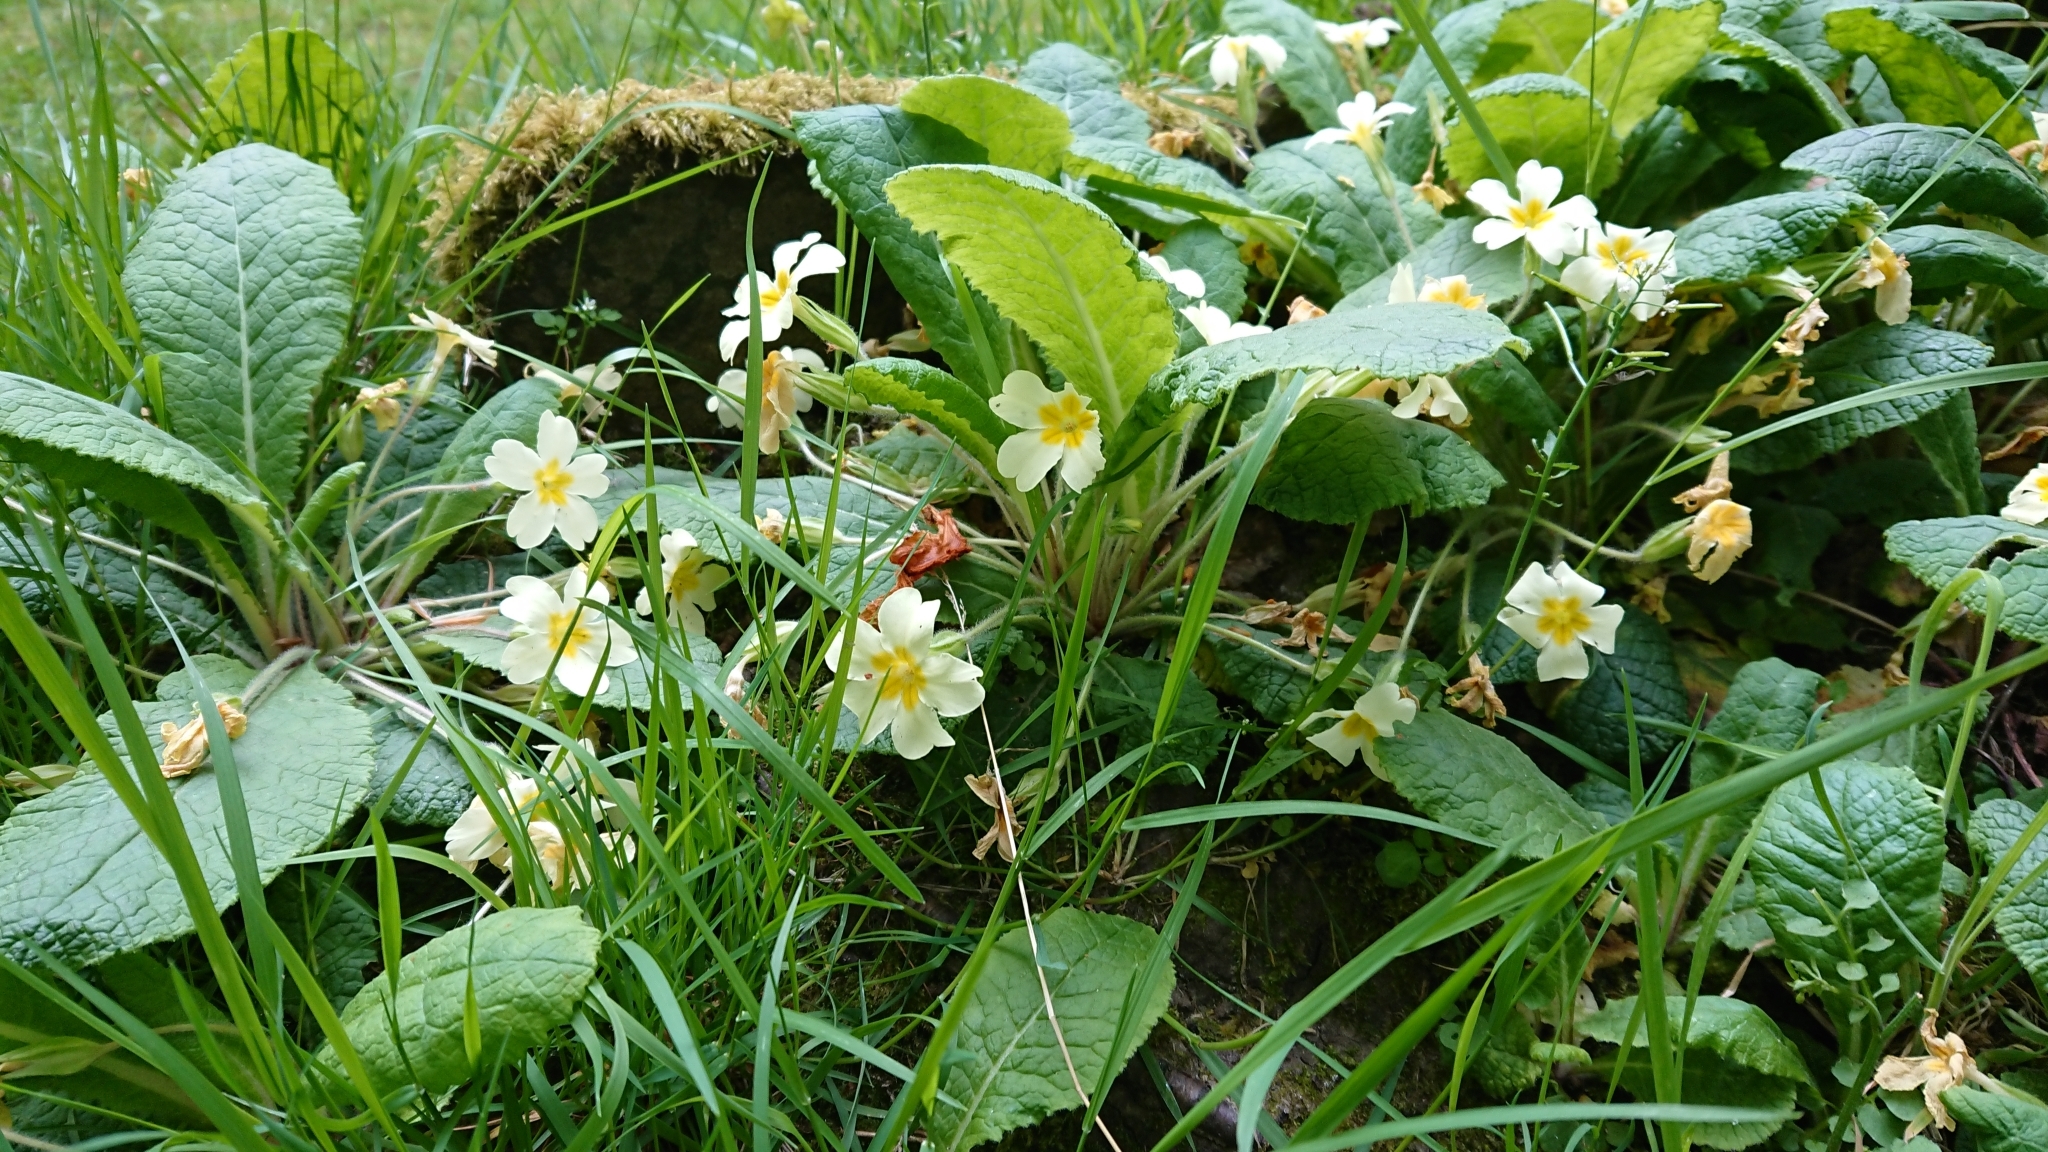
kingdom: Plantae
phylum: Tracheophyta
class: Magnoliopsida
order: Ericales
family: Primulaceae
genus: Primula
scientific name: Primula vulgaris
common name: Primrose
